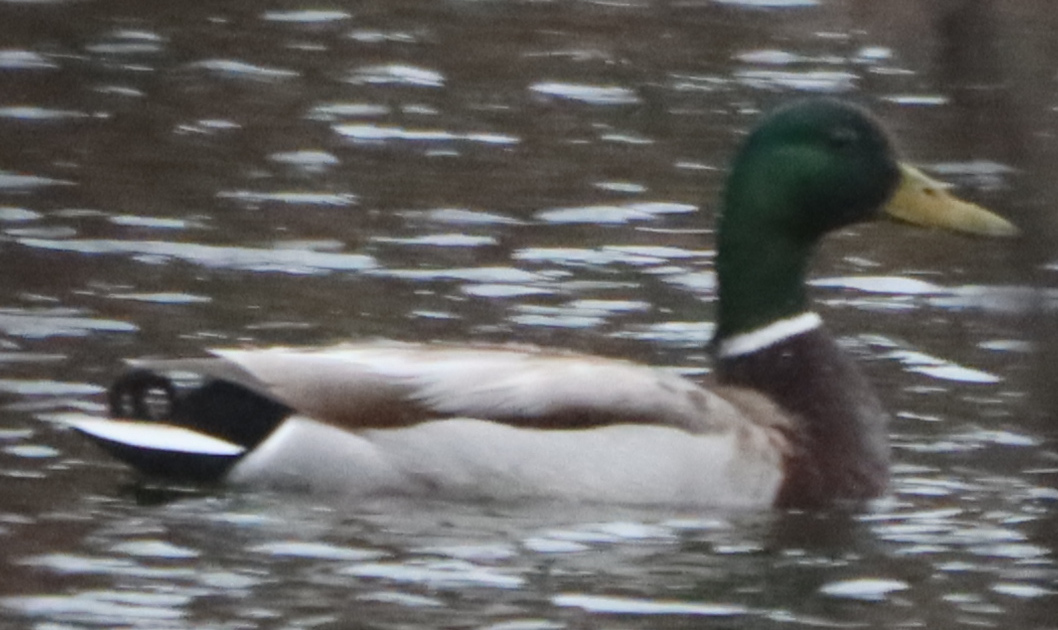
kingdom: Animalia
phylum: Chordata
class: Aves
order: Anseriformes
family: Anatidae
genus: Anas
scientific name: Anas platyrhynchos
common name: Mallard
